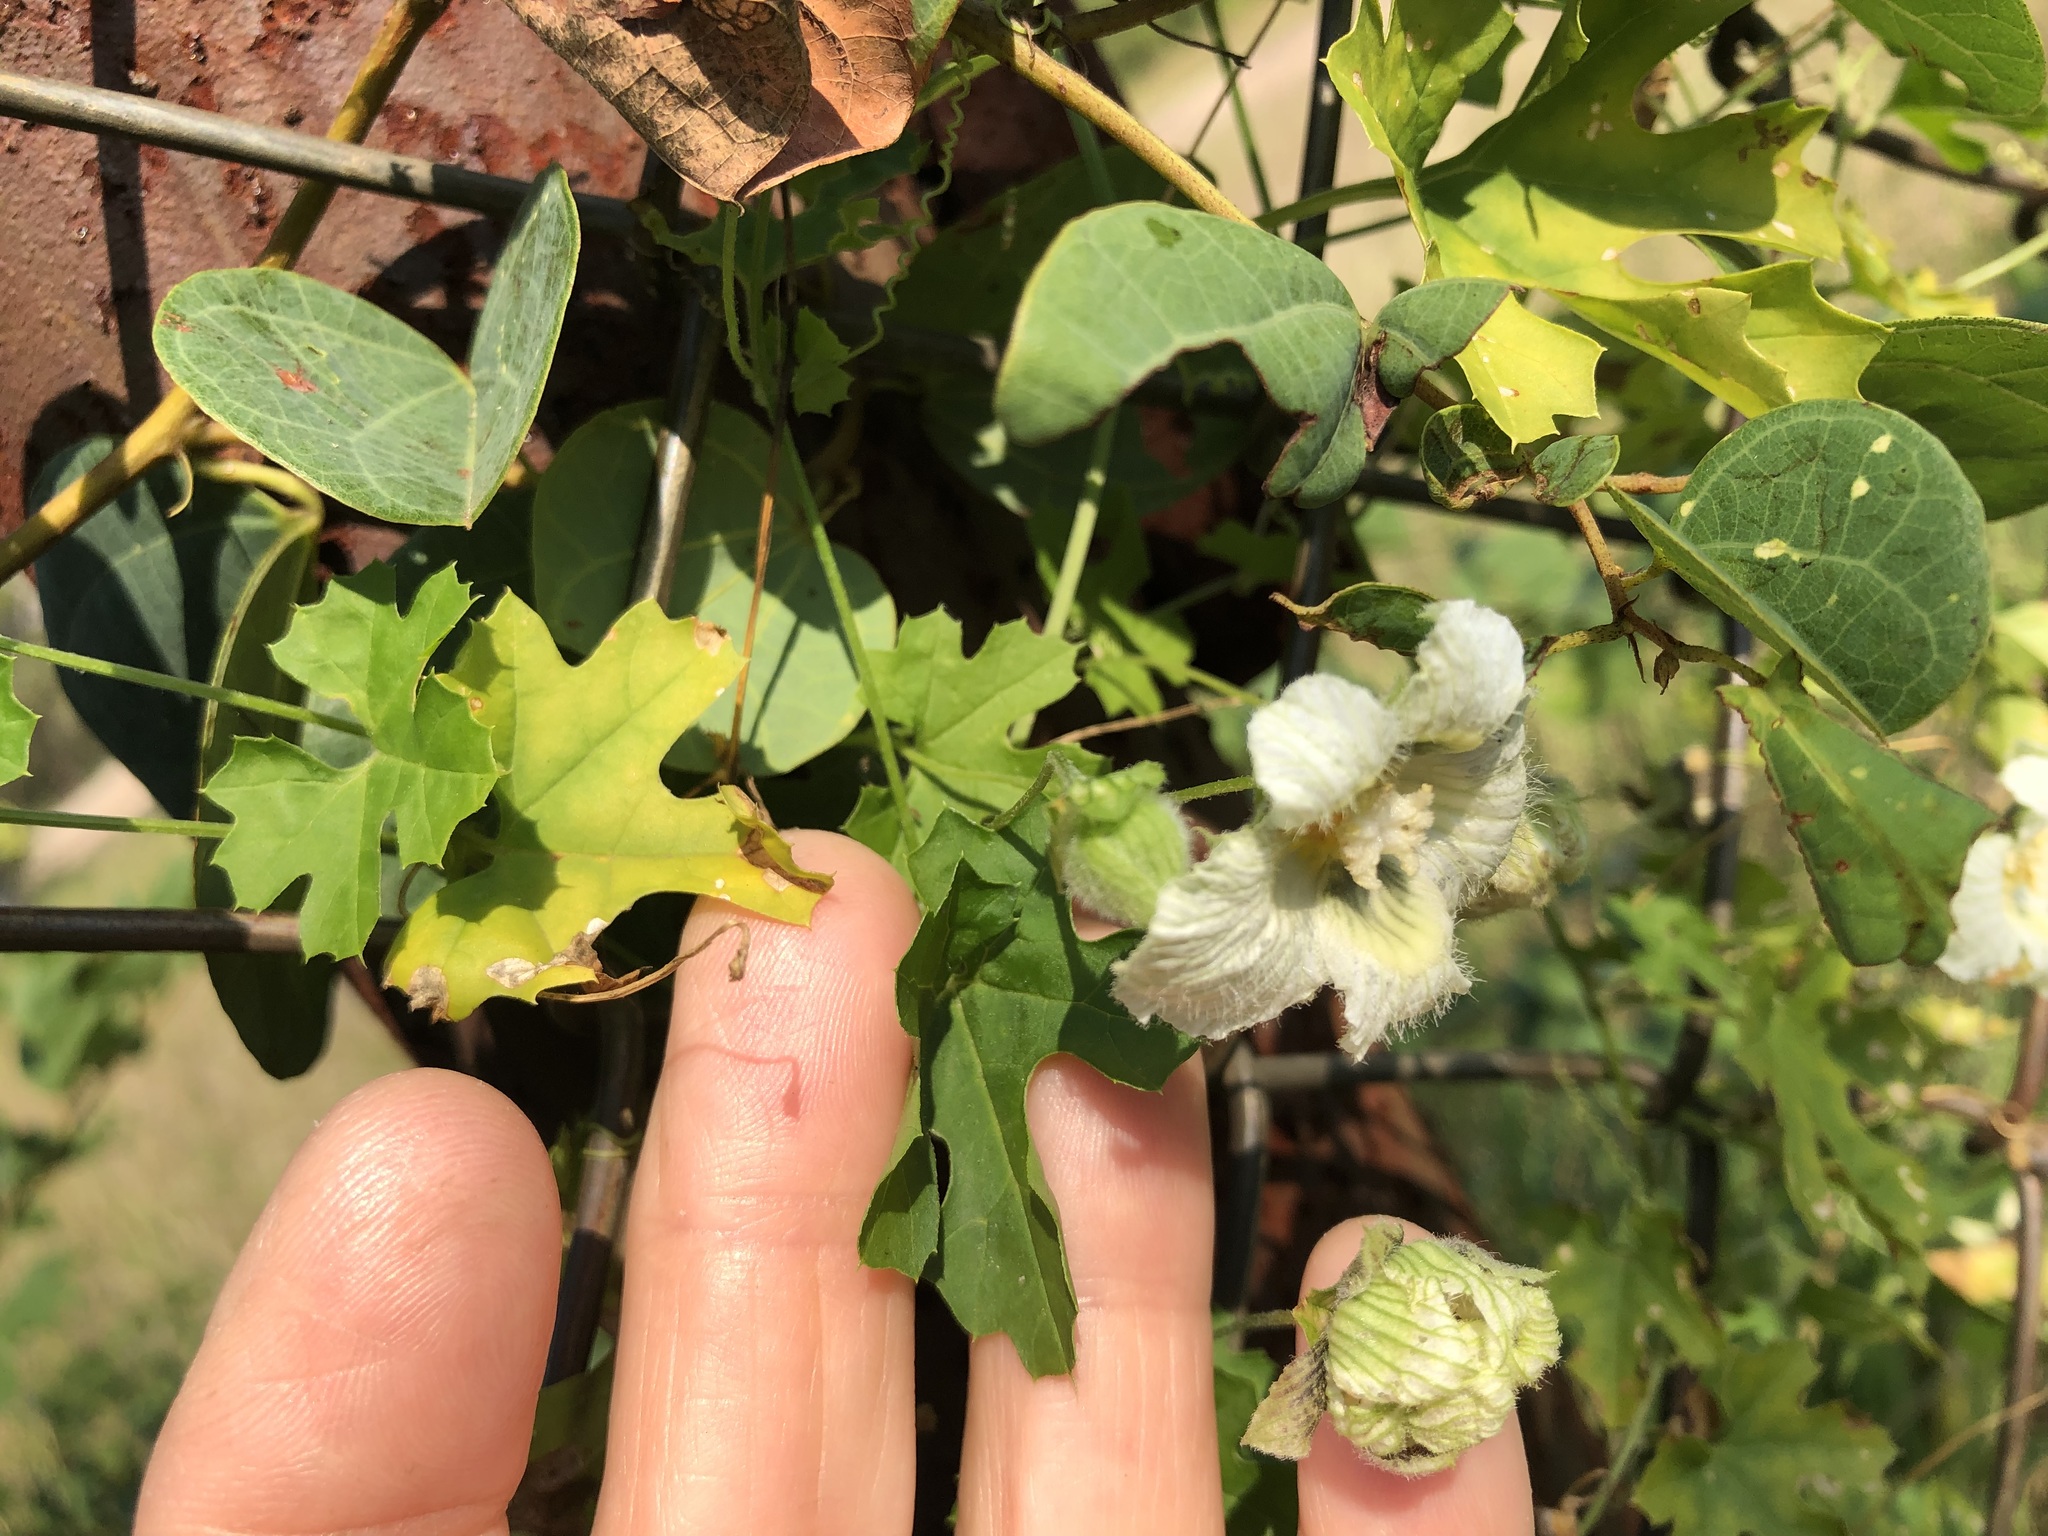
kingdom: Plantae
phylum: Tracheophyta
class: Magnoliopsida
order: Cucurbitales
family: Cucurbitaceae
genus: Momordica
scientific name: Momordica balsamina
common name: Southern balsampear
